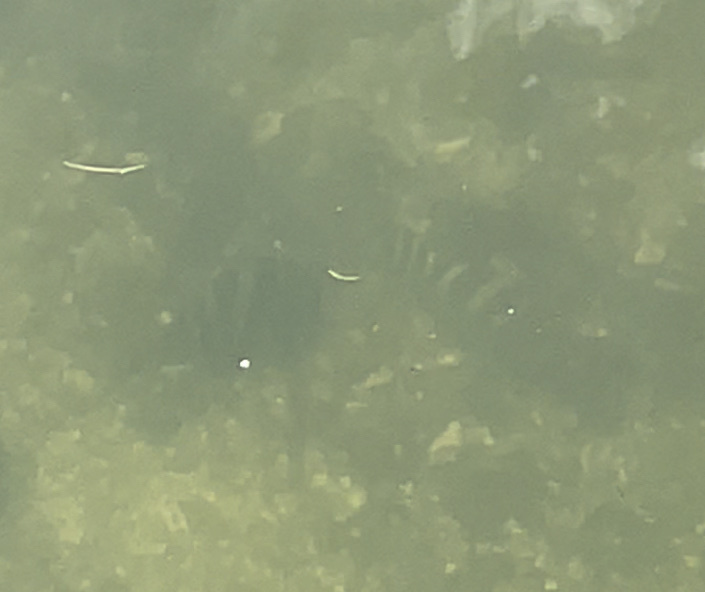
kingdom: Animalia
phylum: Chordata
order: Perciformes
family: Sparidae
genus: Archosargus
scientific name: Archosargus probatocephalus
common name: Sheepshead
